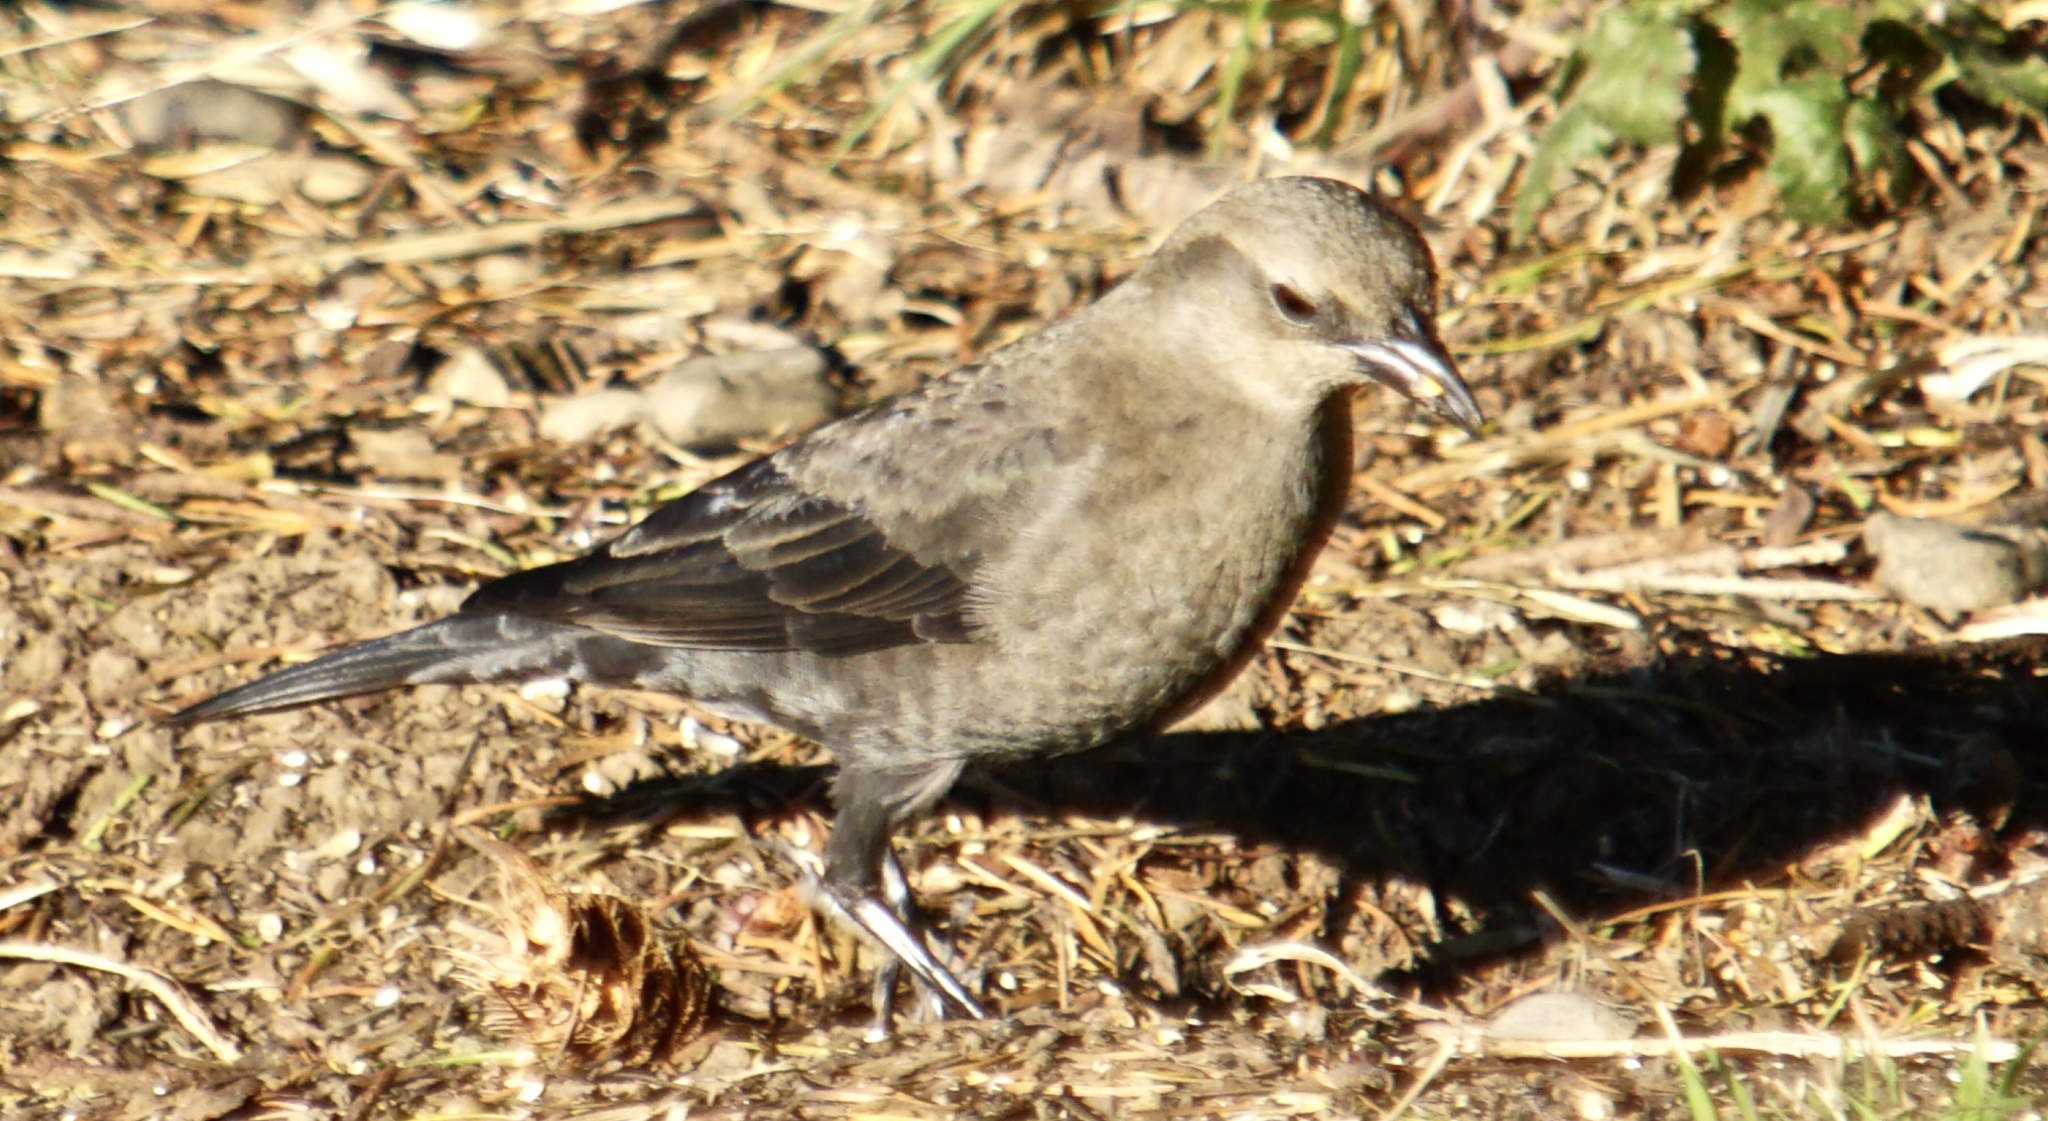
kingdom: Animalia
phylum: Chordata
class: Aves
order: Passeriformes
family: Icteridae
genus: Euphagus
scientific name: Euphagus cyanocephalus
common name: Brewer's blackbird
